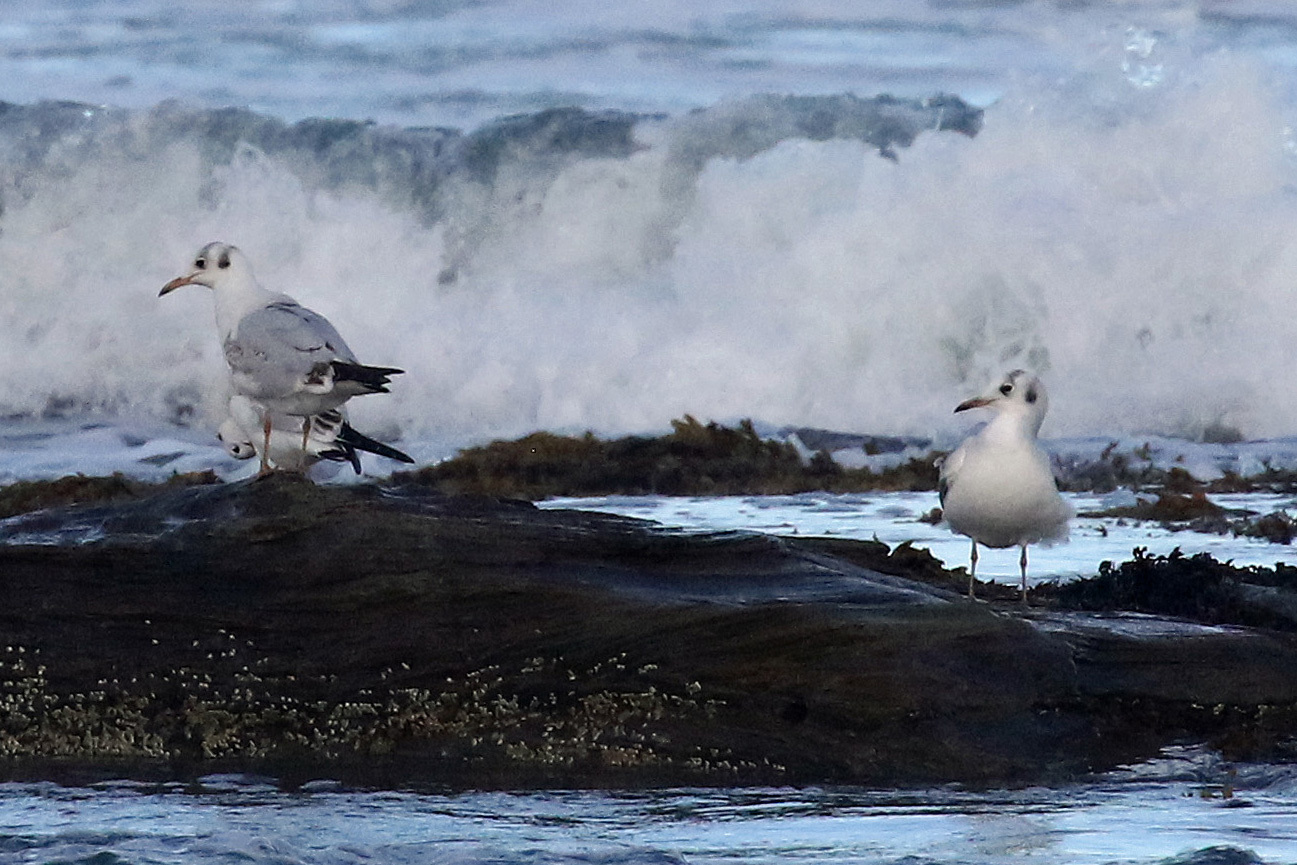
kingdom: Animalia
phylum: Chordata
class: Aves
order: Charadriiformes
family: Laridae
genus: Chroicocephalus
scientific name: Chroicocephalus ridibundus
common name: Black-headed gull
